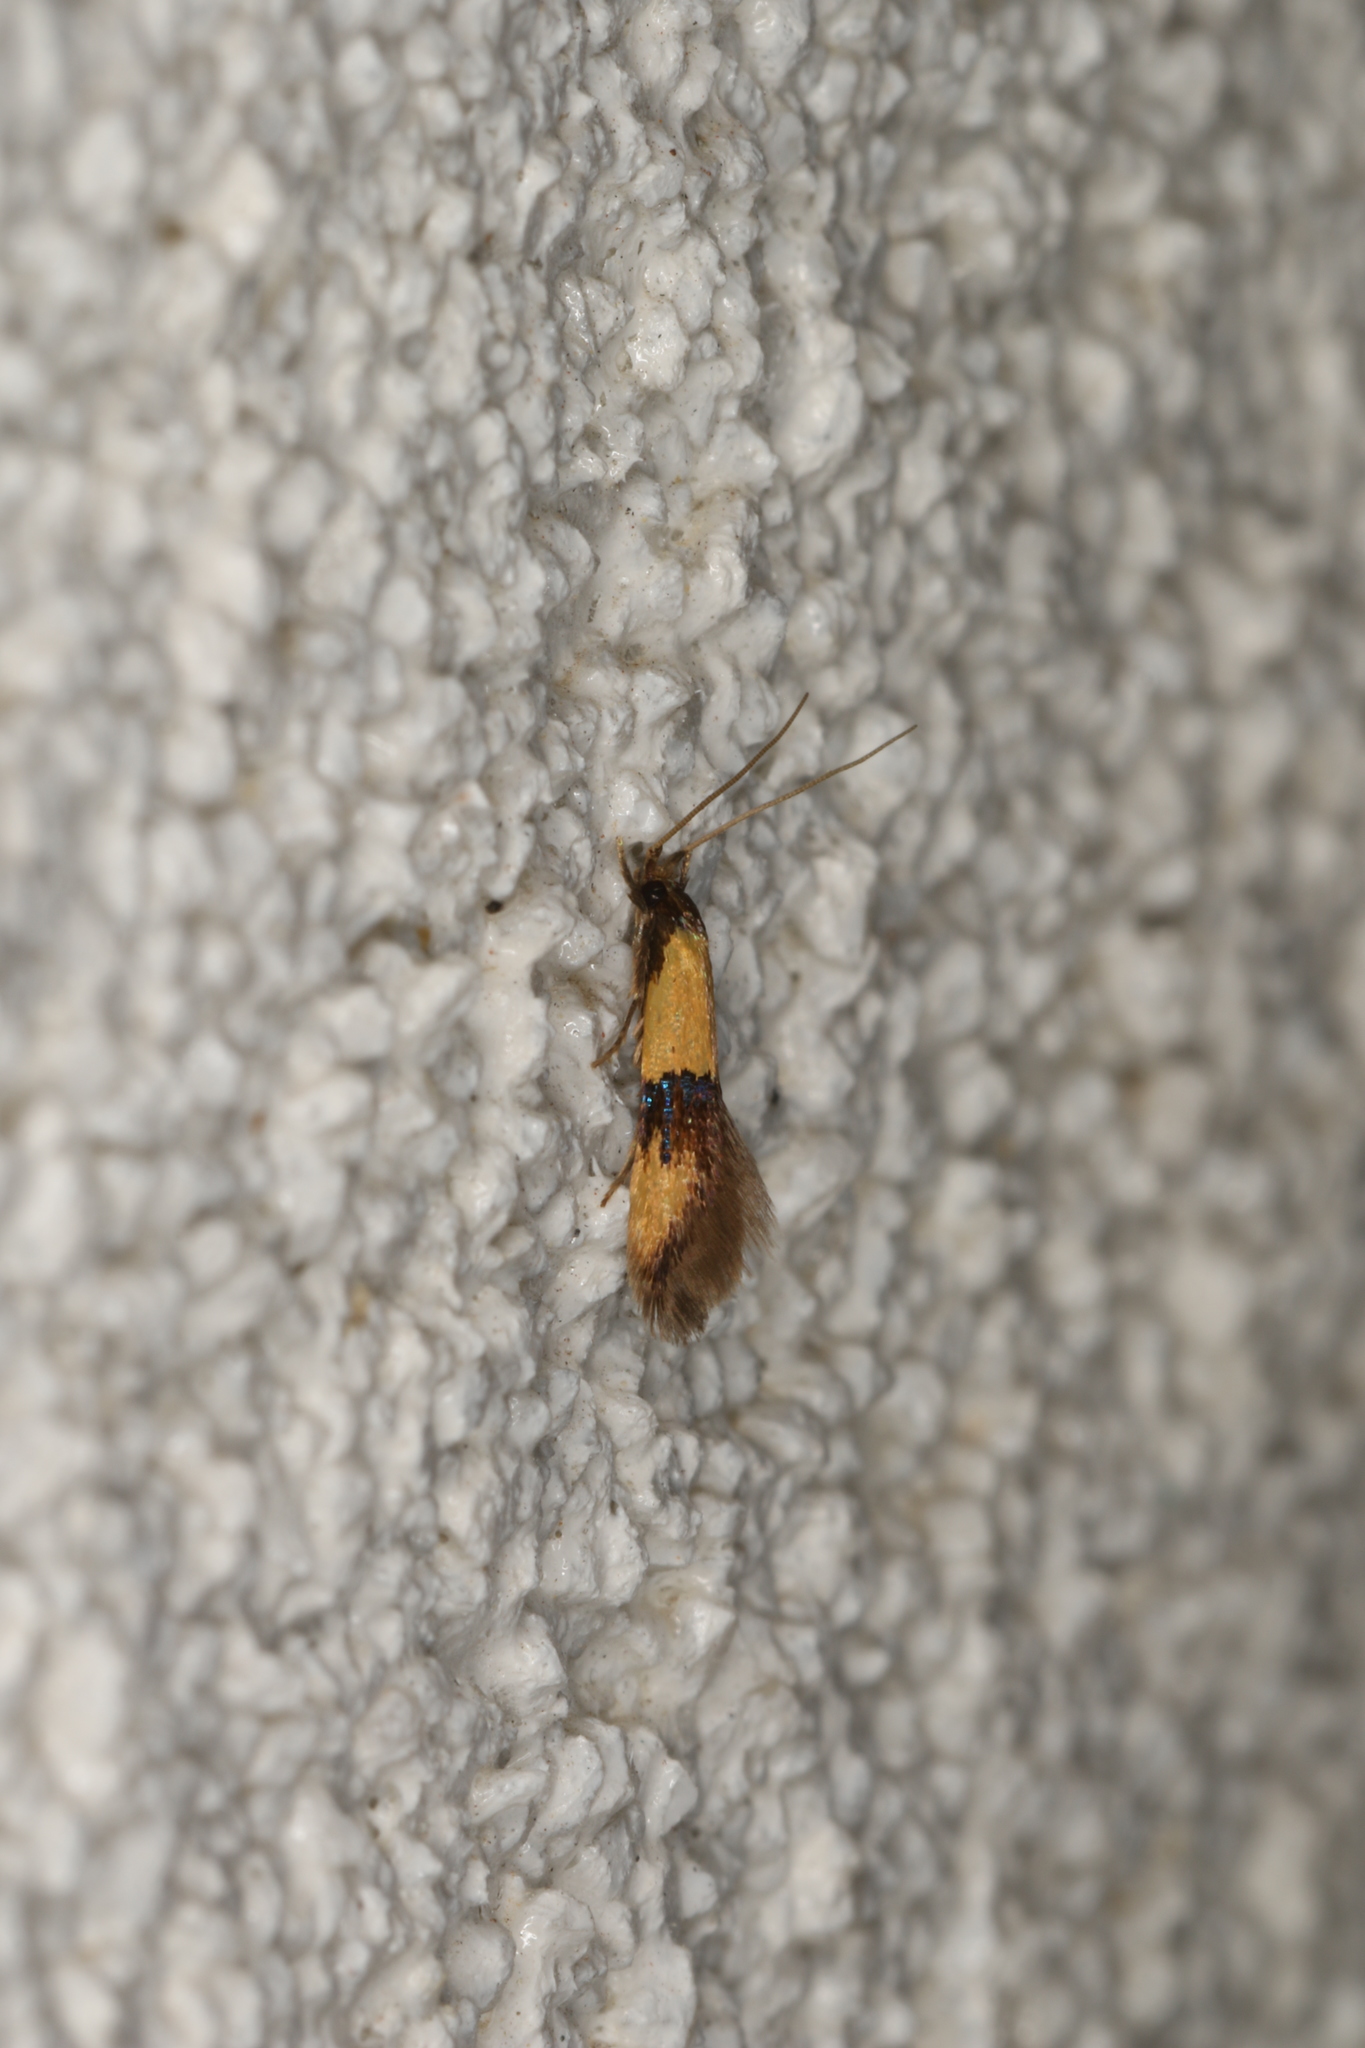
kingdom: Animalia
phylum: Arthropoda
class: Insecta
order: Lepidoptera
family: Tineidae
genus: Opogona
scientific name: Opogona papayae
